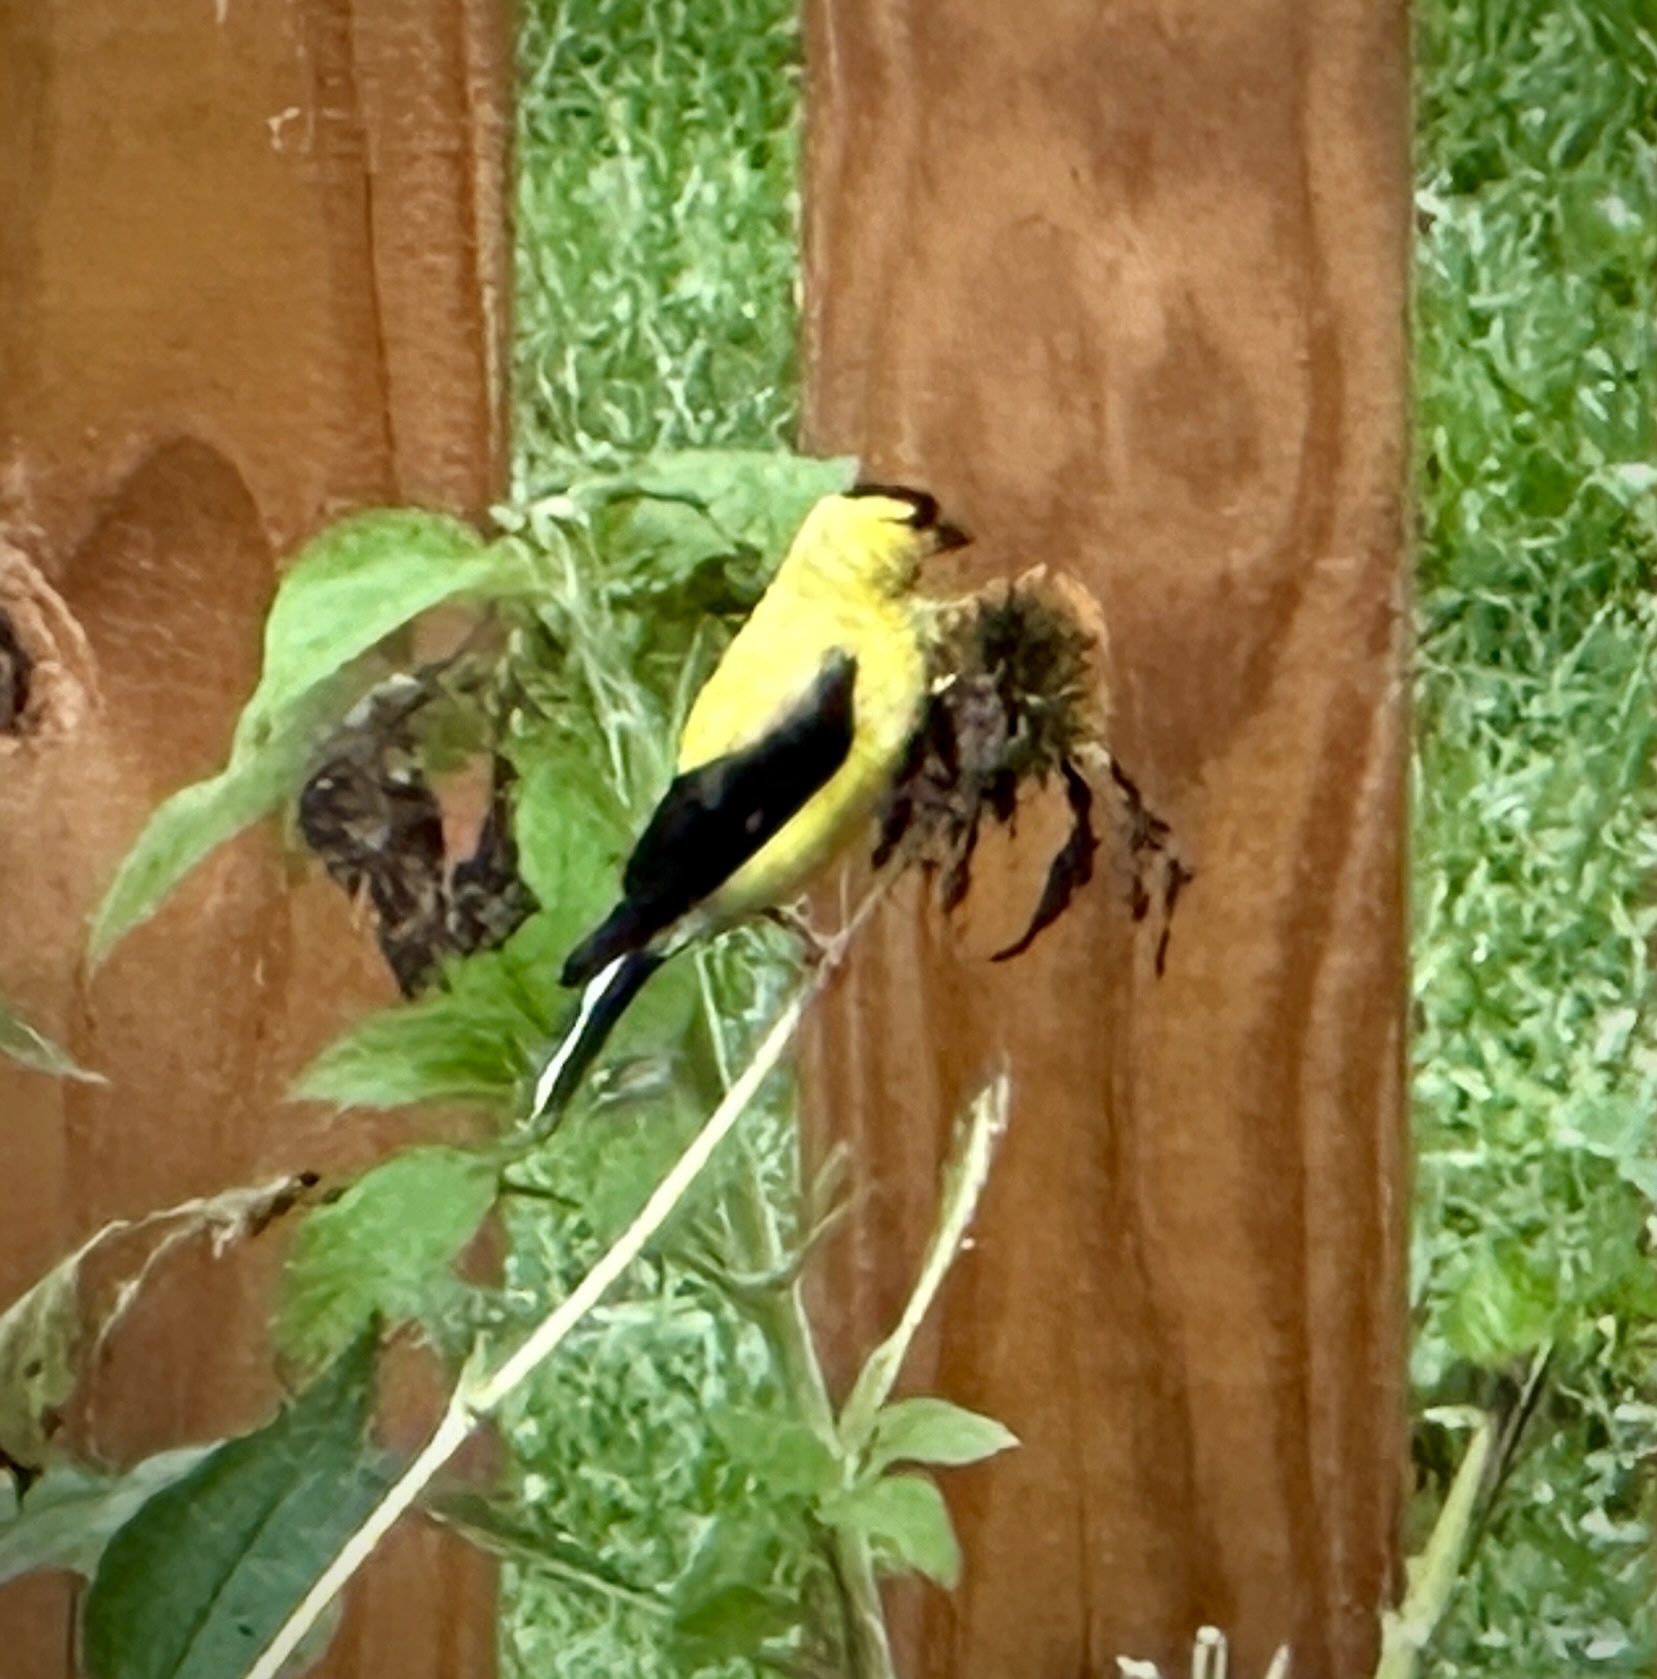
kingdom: Animalia
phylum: Chordata
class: Aves
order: Passeriformes
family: Fringillidae
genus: Spinus
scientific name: Spinus tristis
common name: American goldfinch
